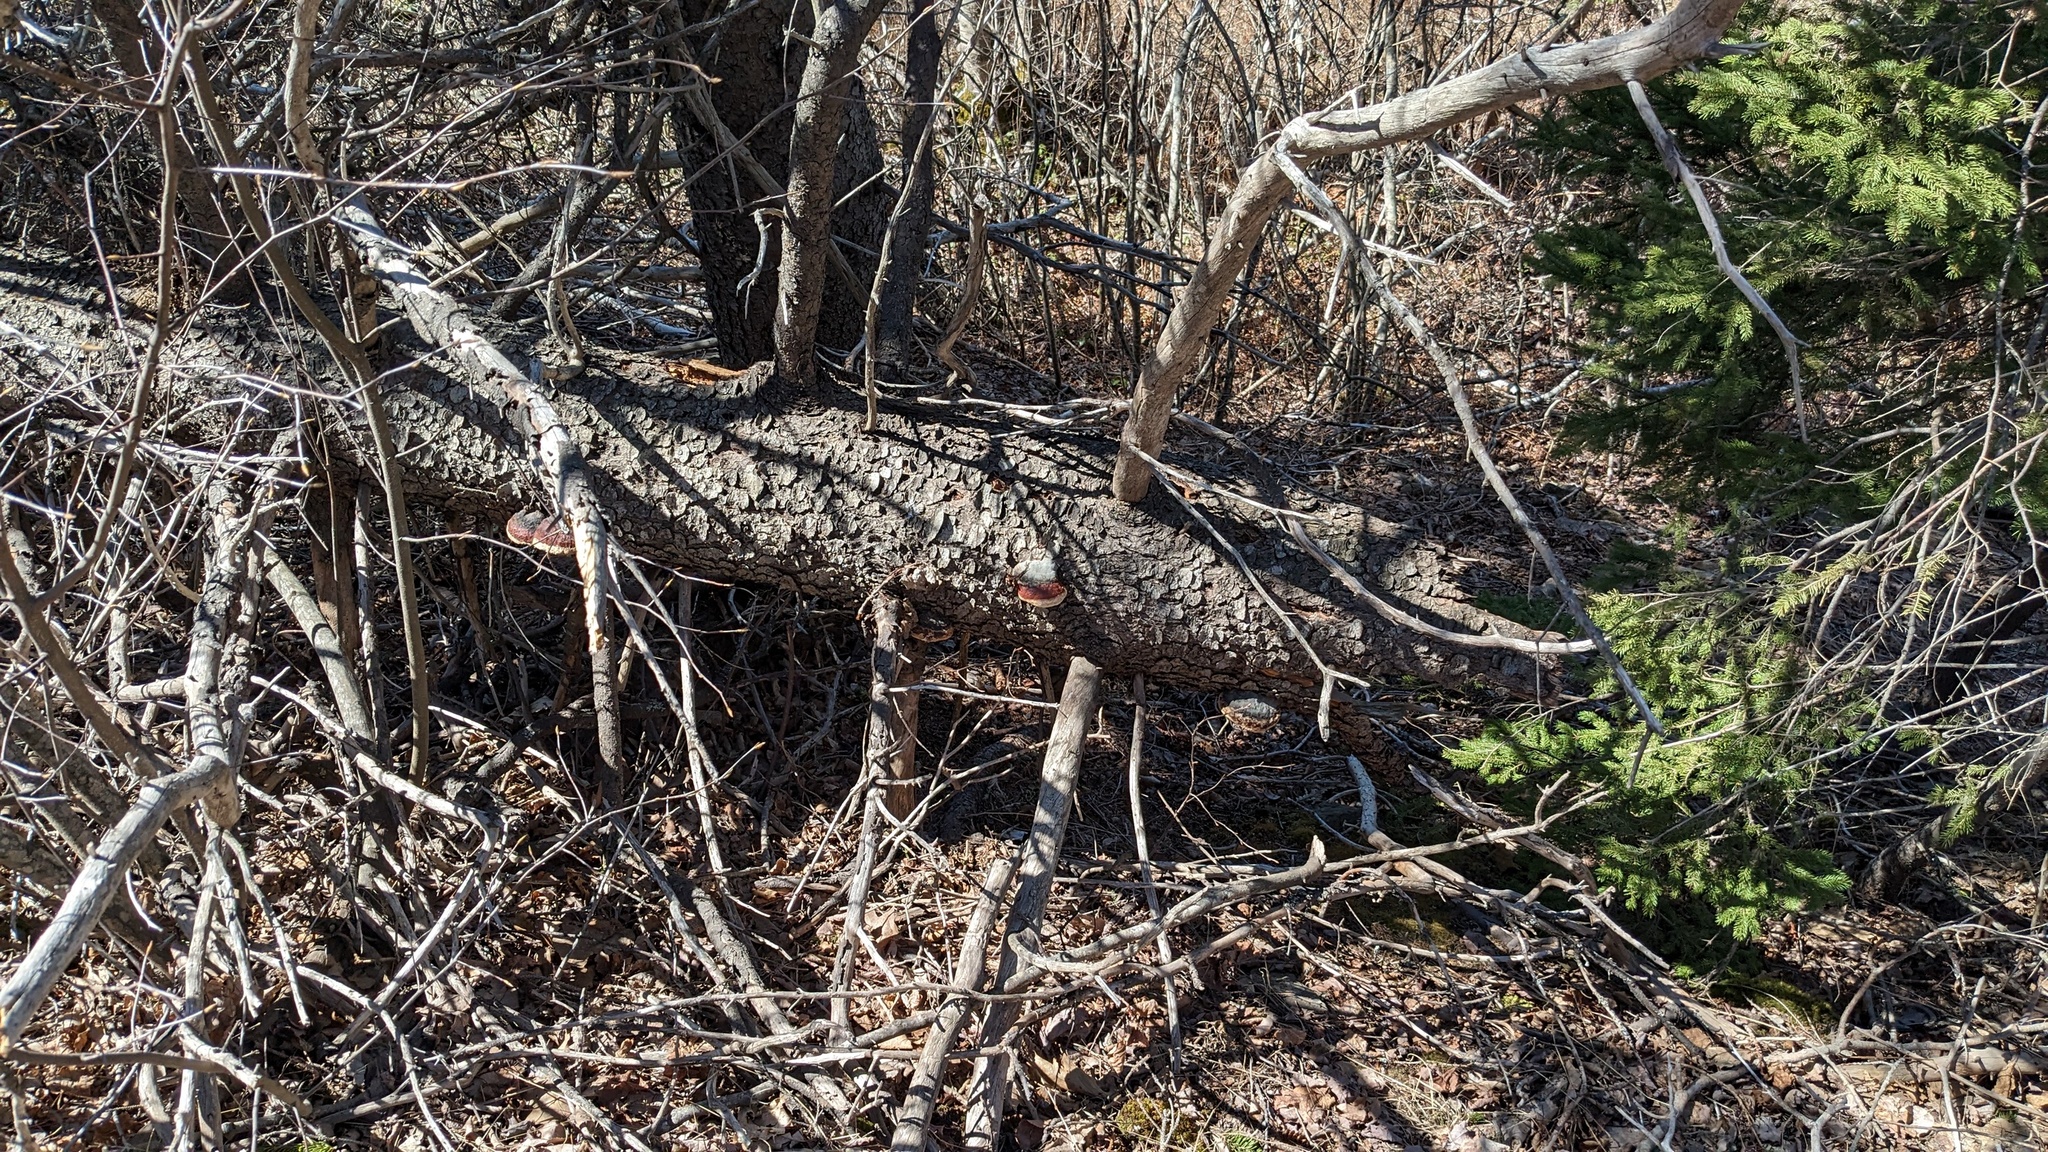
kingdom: Fungi
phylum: Basidiomycota
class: Agaricomycetes
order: Polyporales
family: Fomitopsidaceae
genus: Fomitopsis
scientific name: Fomitopsis mounceae
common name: Northern red belt
